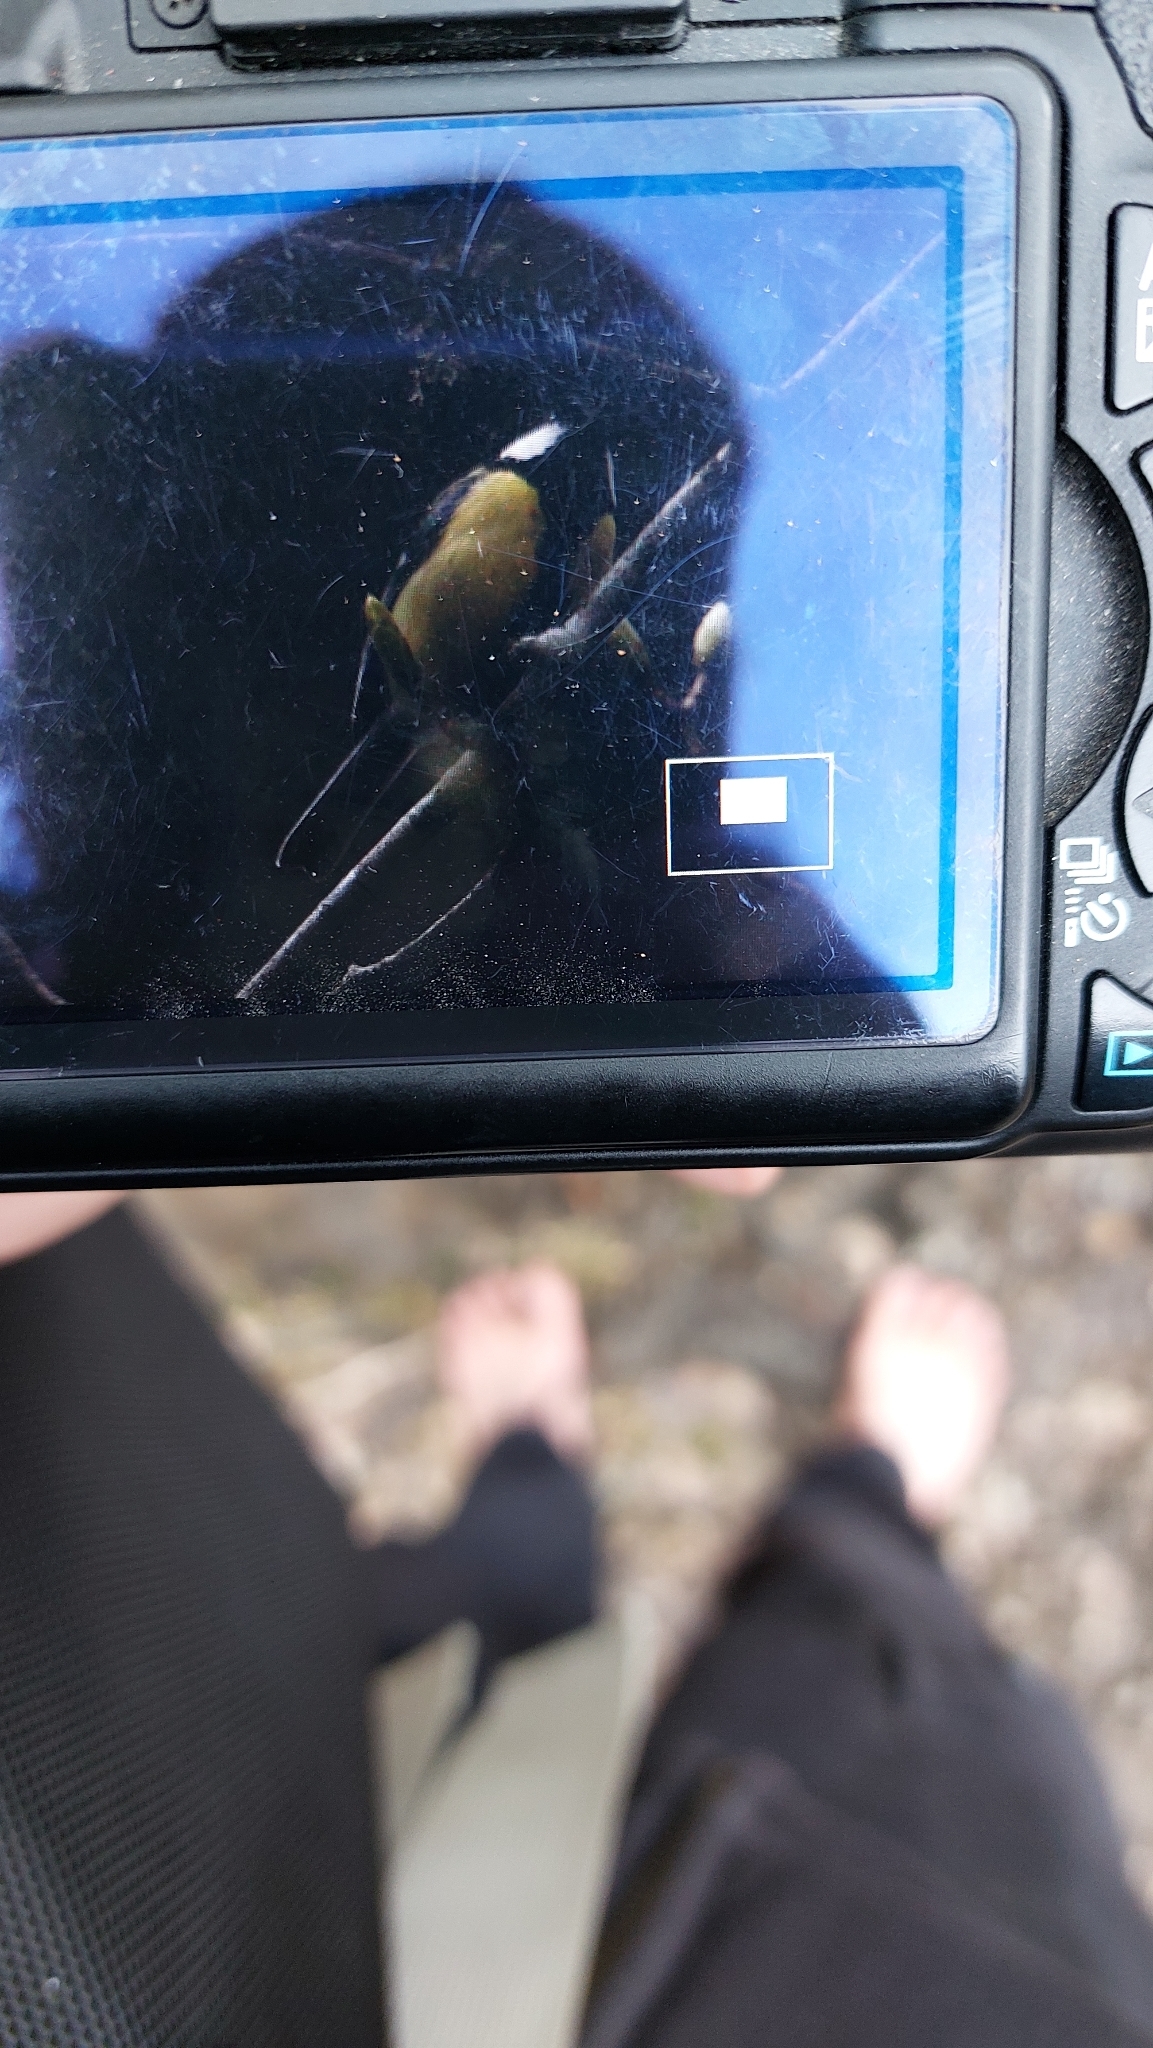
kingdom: Animalia
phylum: Chordata
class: Aves
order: Passeriformes
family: Paridae
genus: Parus
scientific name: Parus major
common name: Great tit
